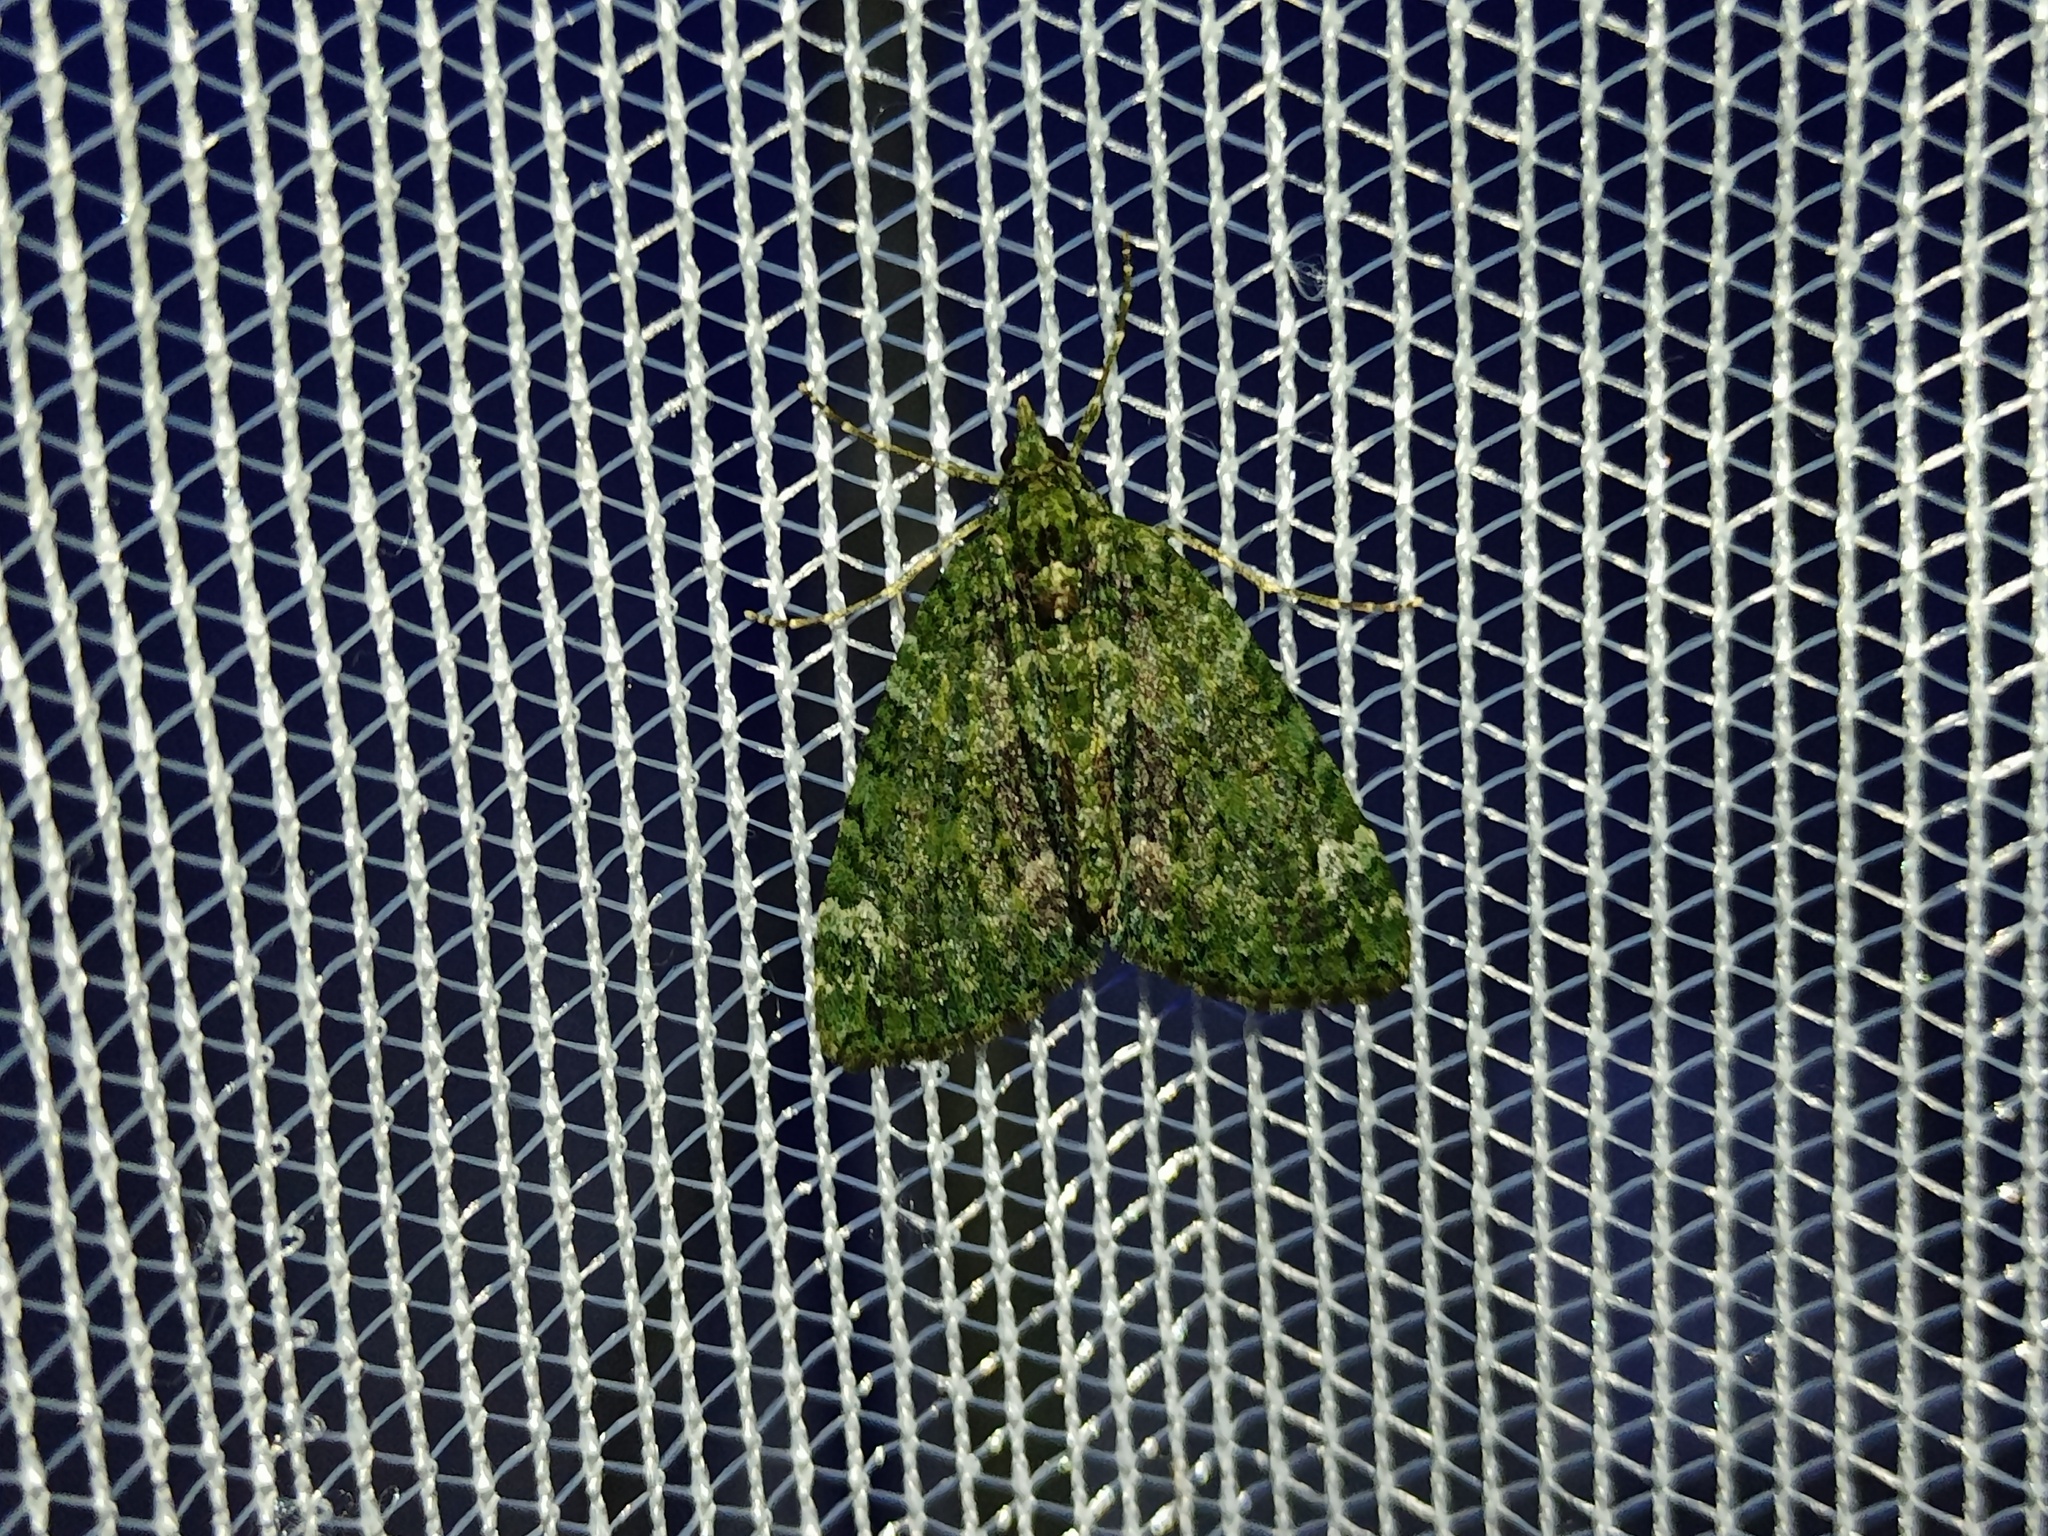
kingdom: Animalia
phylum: Arthropoda
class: Insecta
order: Lepidoptera
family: Geometridae
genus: Chloroclysta
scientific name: Chloroclysta siterata
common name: Red-green carpet
